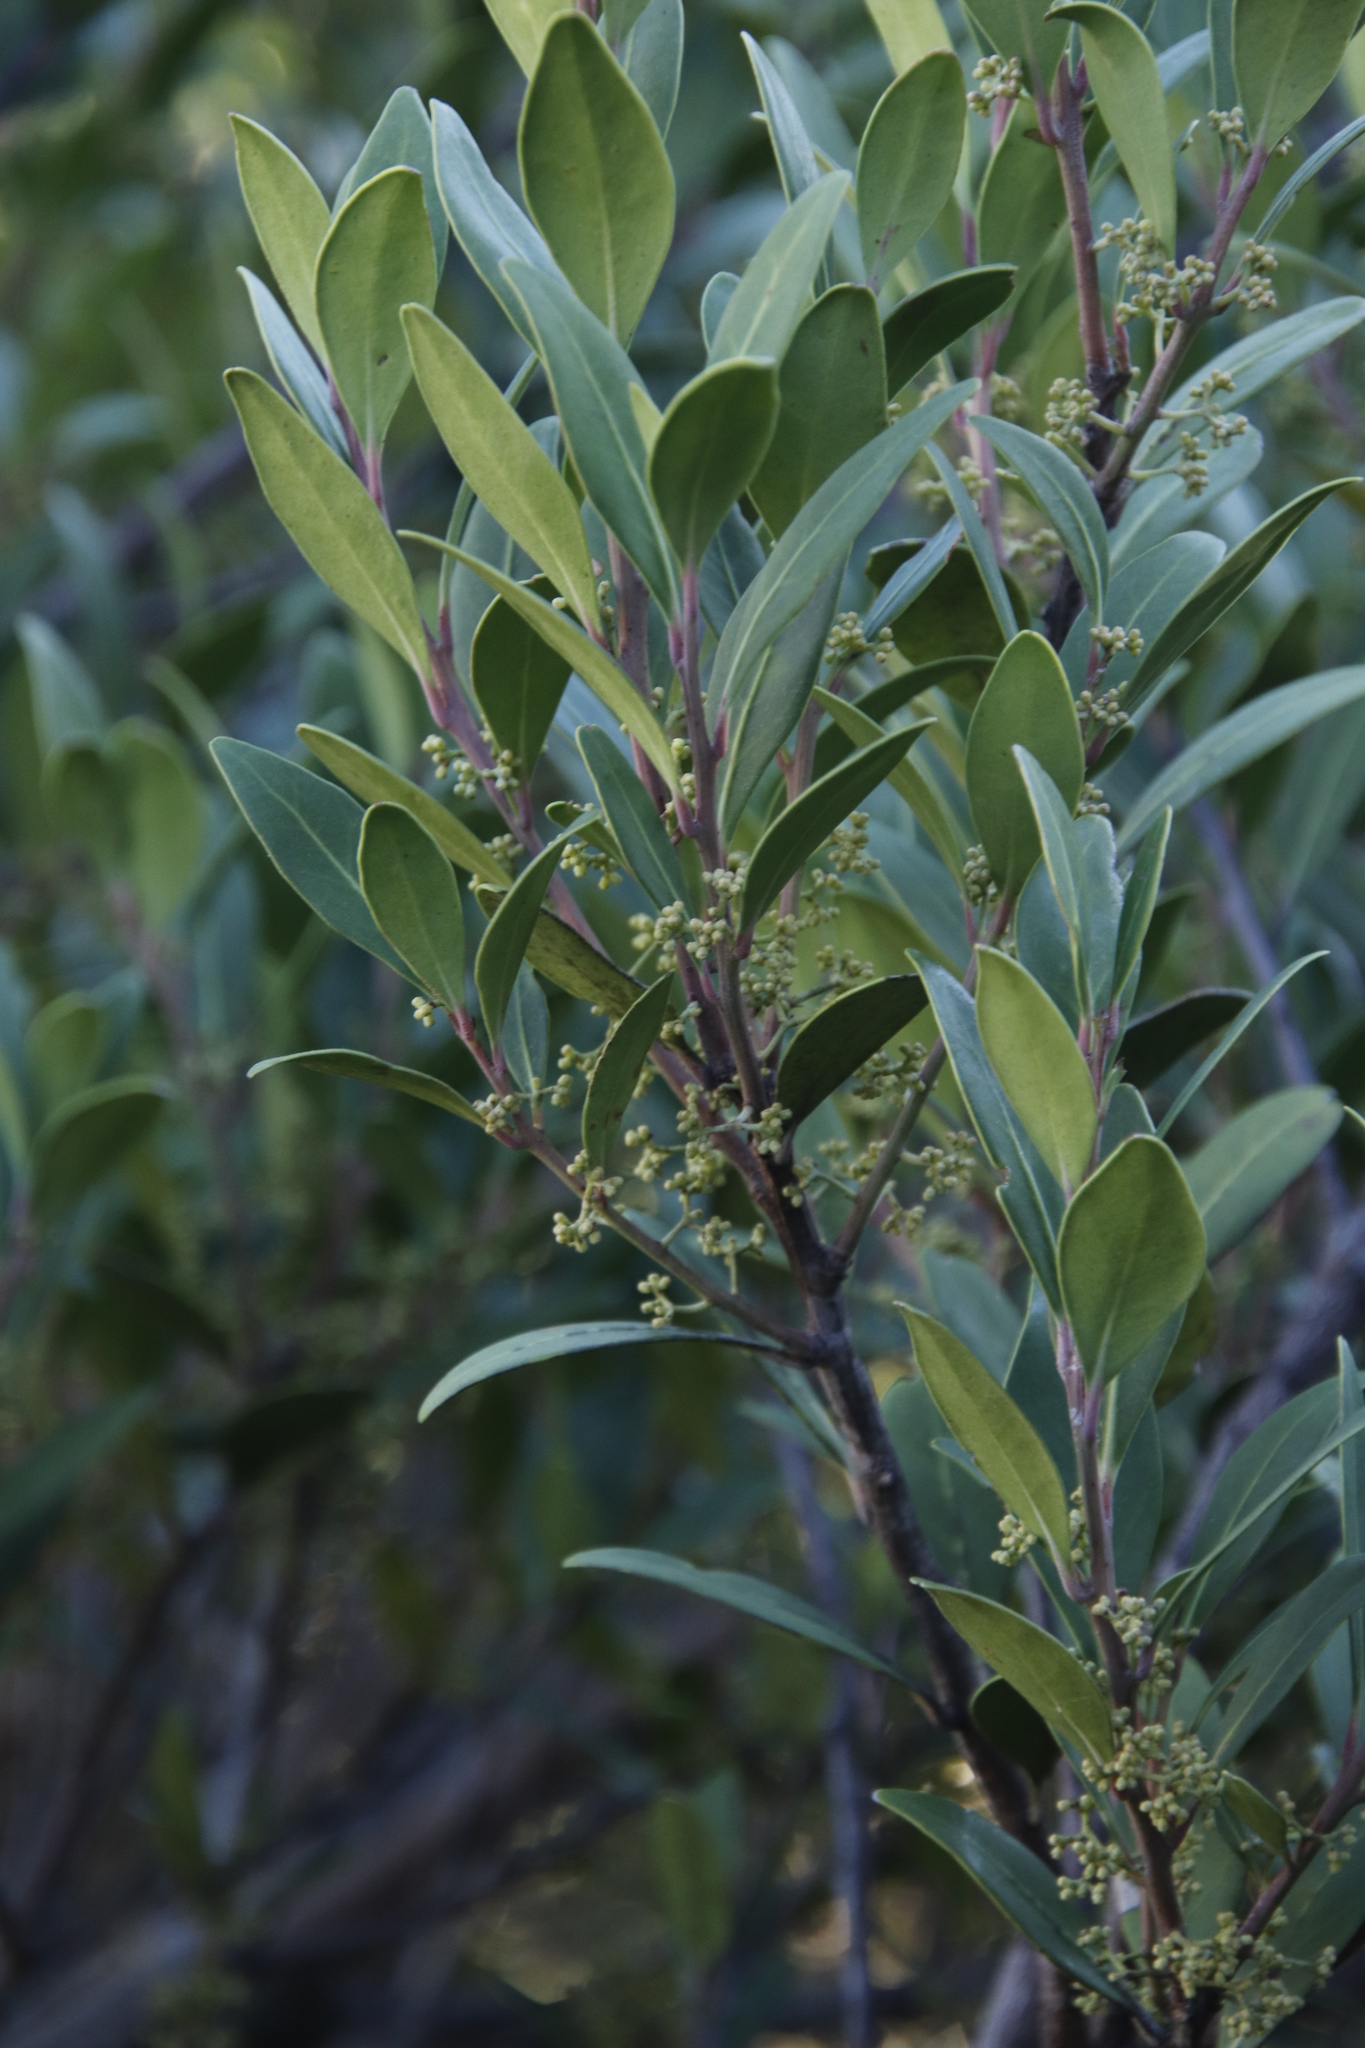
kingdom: Plantae
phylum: Tracheophyta
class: Magnoliopsida
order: Celastrales
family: Celastraceae
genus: Gymnosporia
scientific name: Gymnosporia laurina
